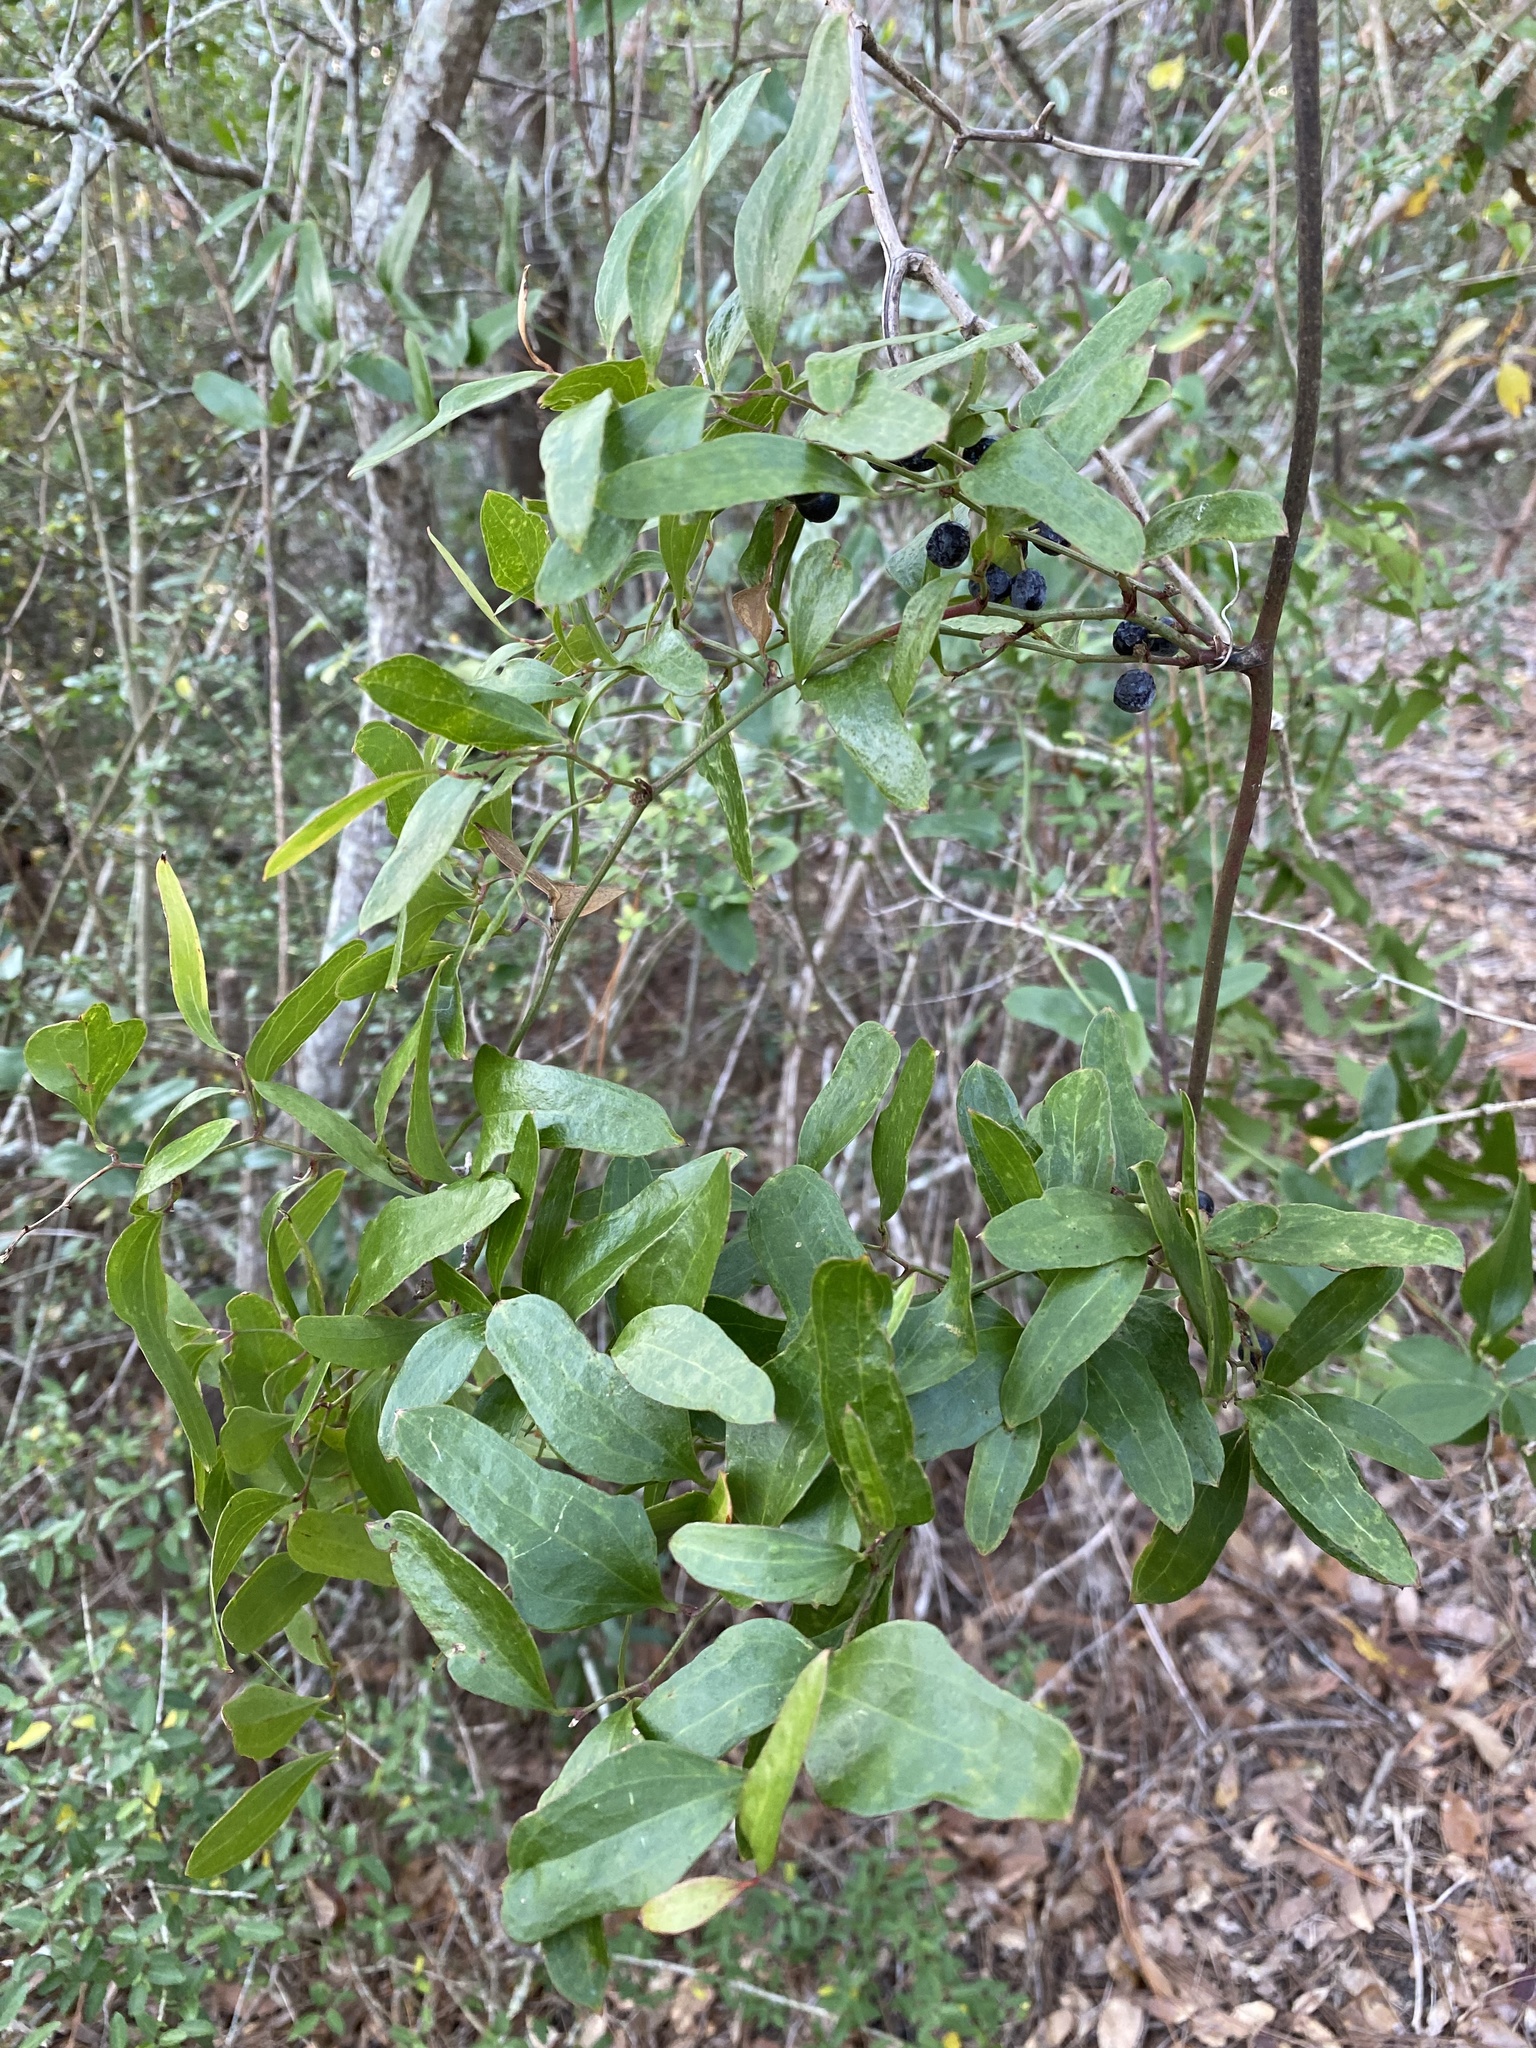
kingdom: Plantae
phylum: Tracheophyta
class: Liliopsida
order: Liliales
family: Smilacaceae
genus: Smilax
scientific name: Smilax auriculata
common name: Wild bamboo
